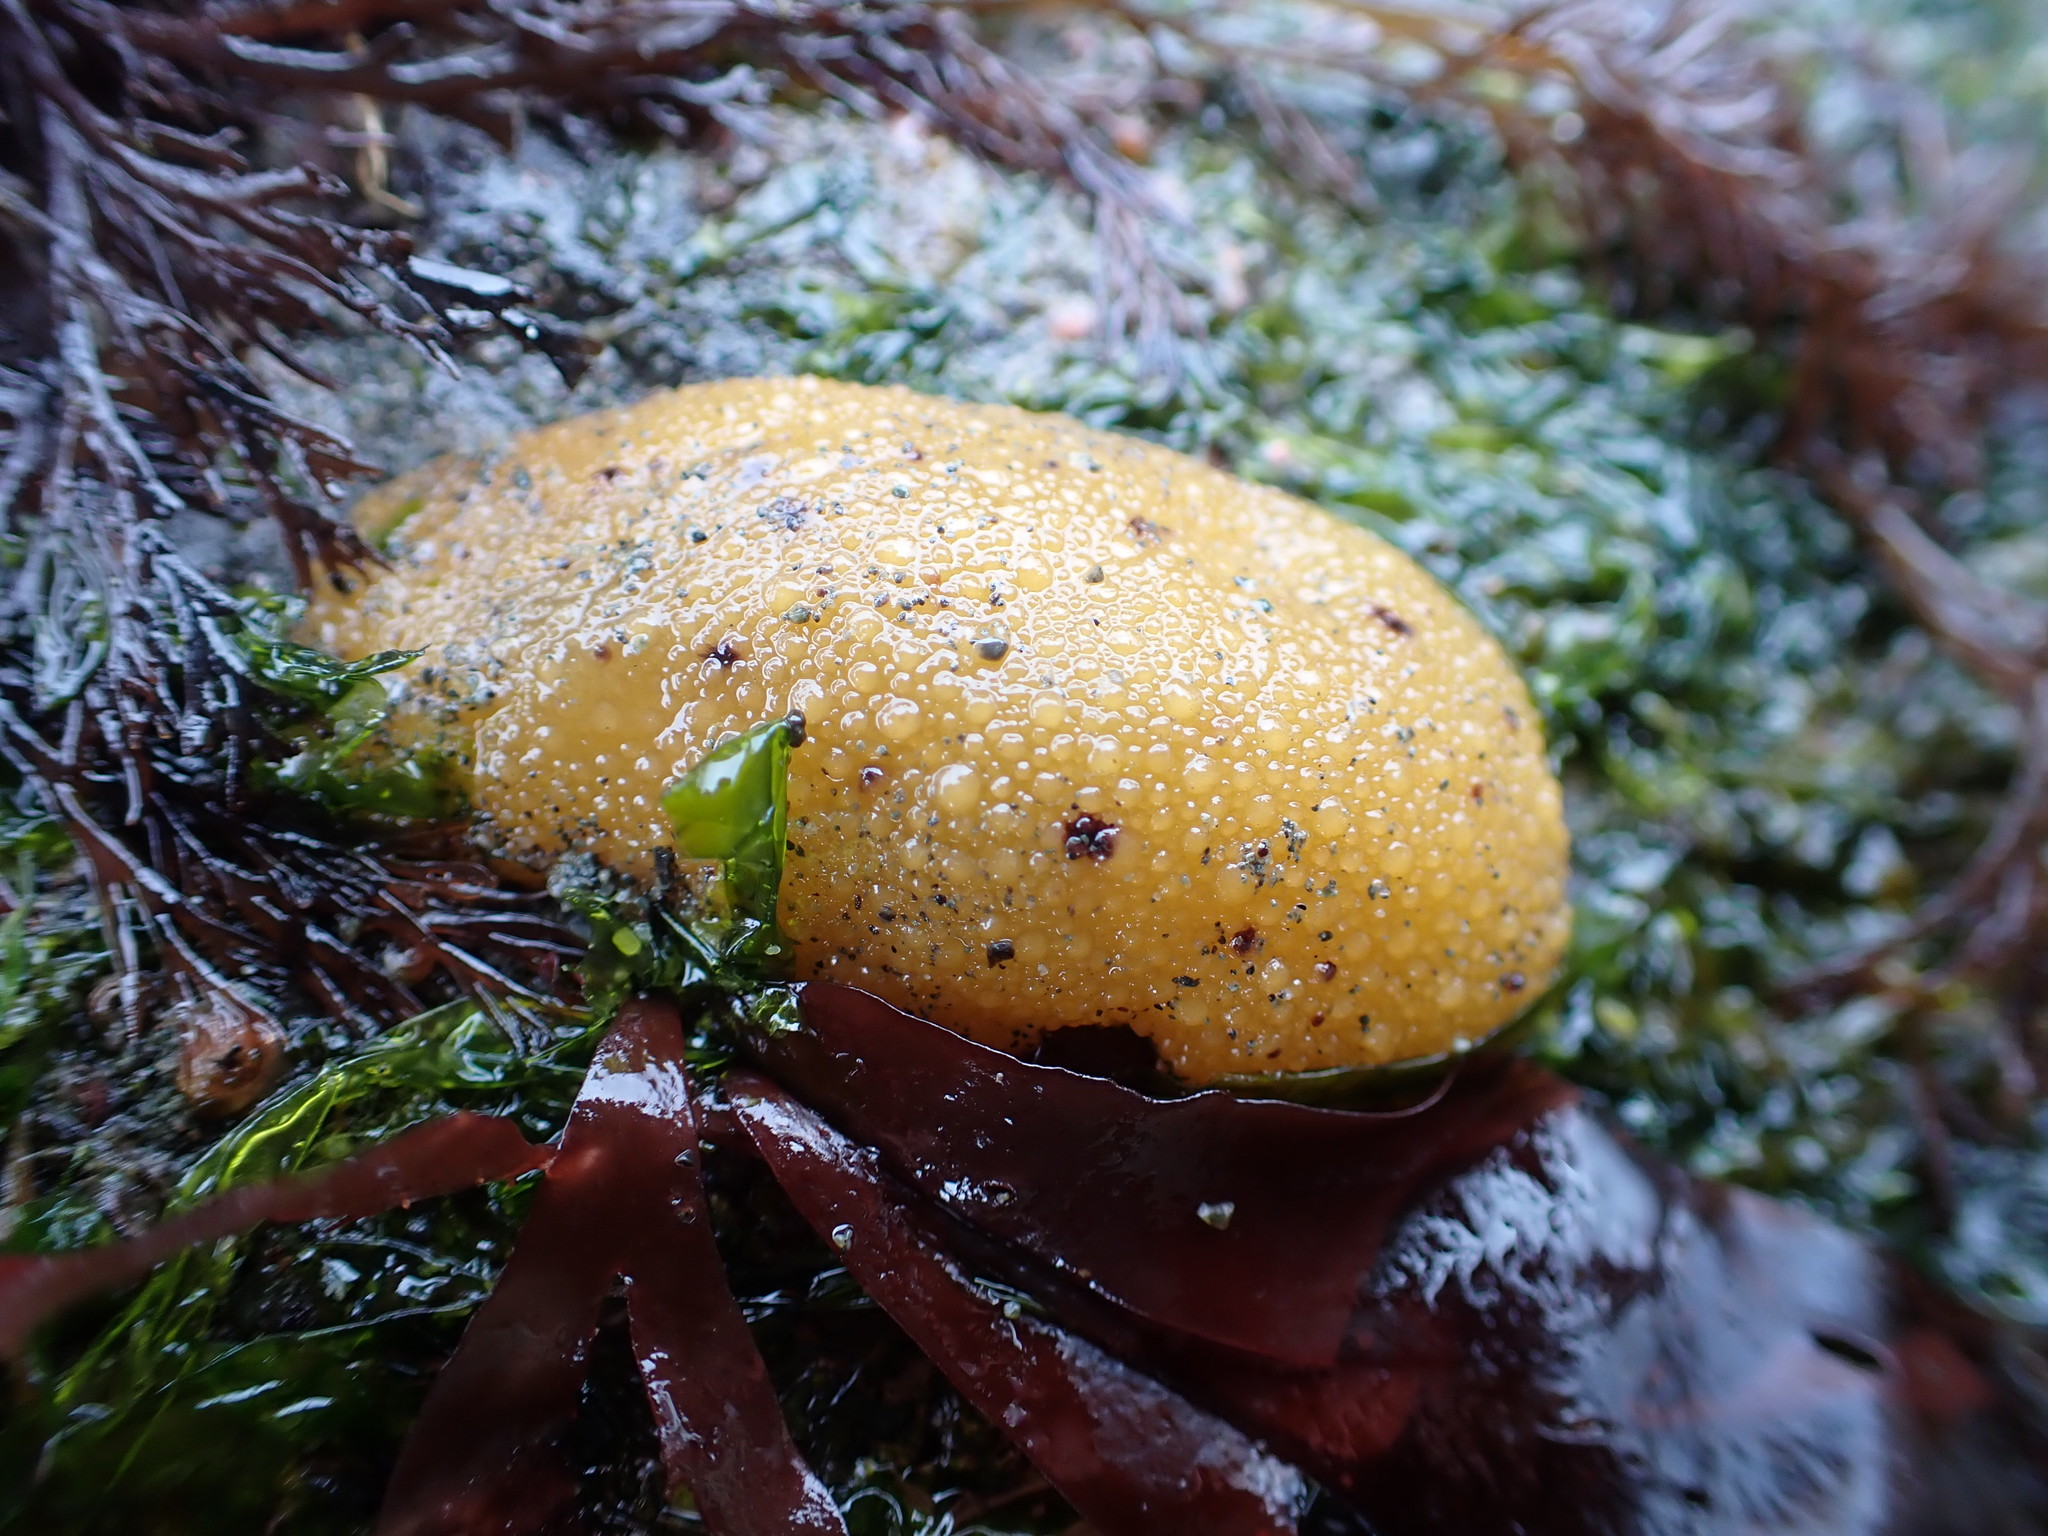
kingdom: Animalia
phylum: Mollusca
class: Gastropoda
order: Nudibranchia
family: Dorididae
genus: Doris
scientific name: Doris montereyensis
